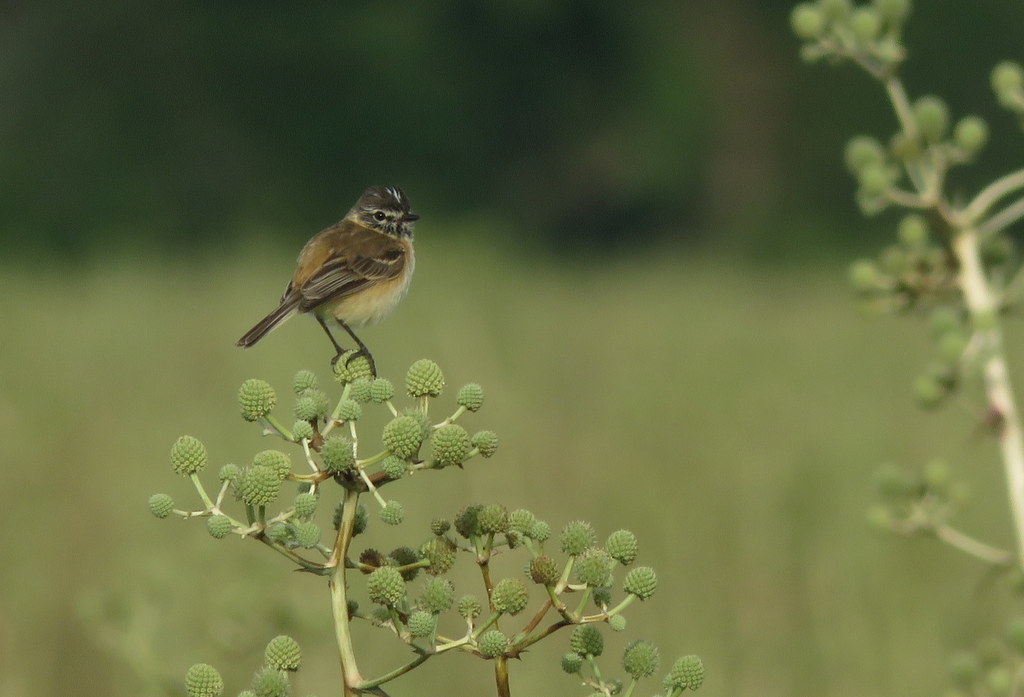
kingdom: Animalia
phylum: Chordata
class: Aves
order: Passeriformes
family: Tyrannidae
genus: Polystictus
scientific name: Polystictus pectoralis
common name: Bearded tachuri
